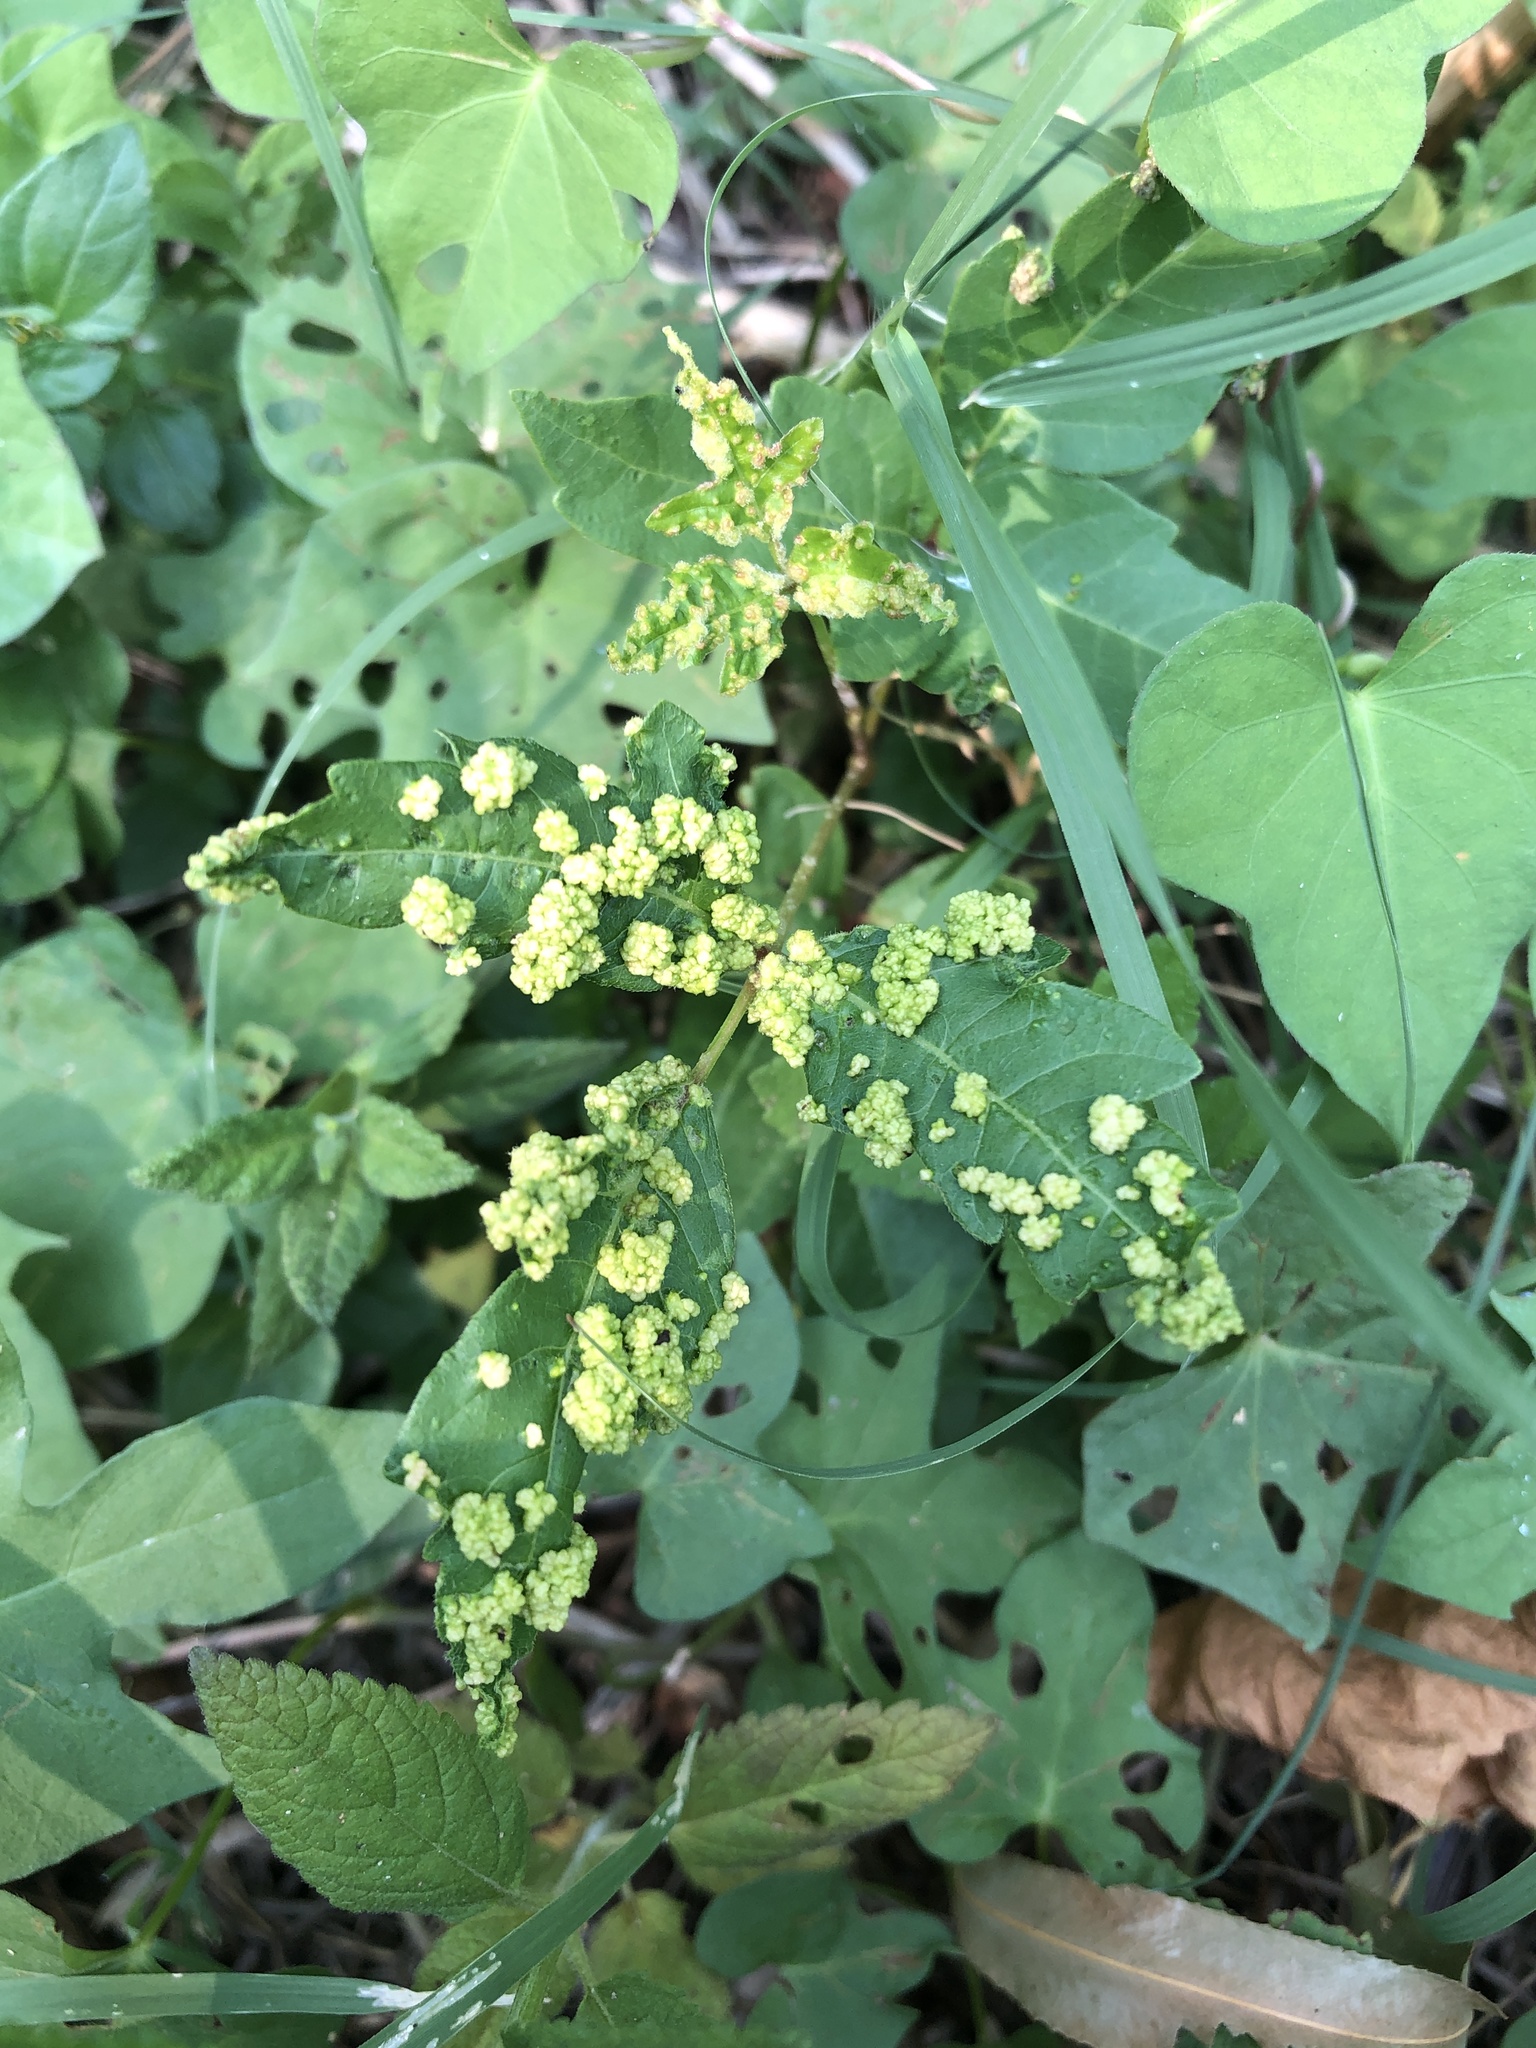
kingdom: Animalia
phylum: Arthropoda
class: Arachnida
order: Trombidiformes
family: Eriophyidae
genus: Aculops
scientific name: Aculops
